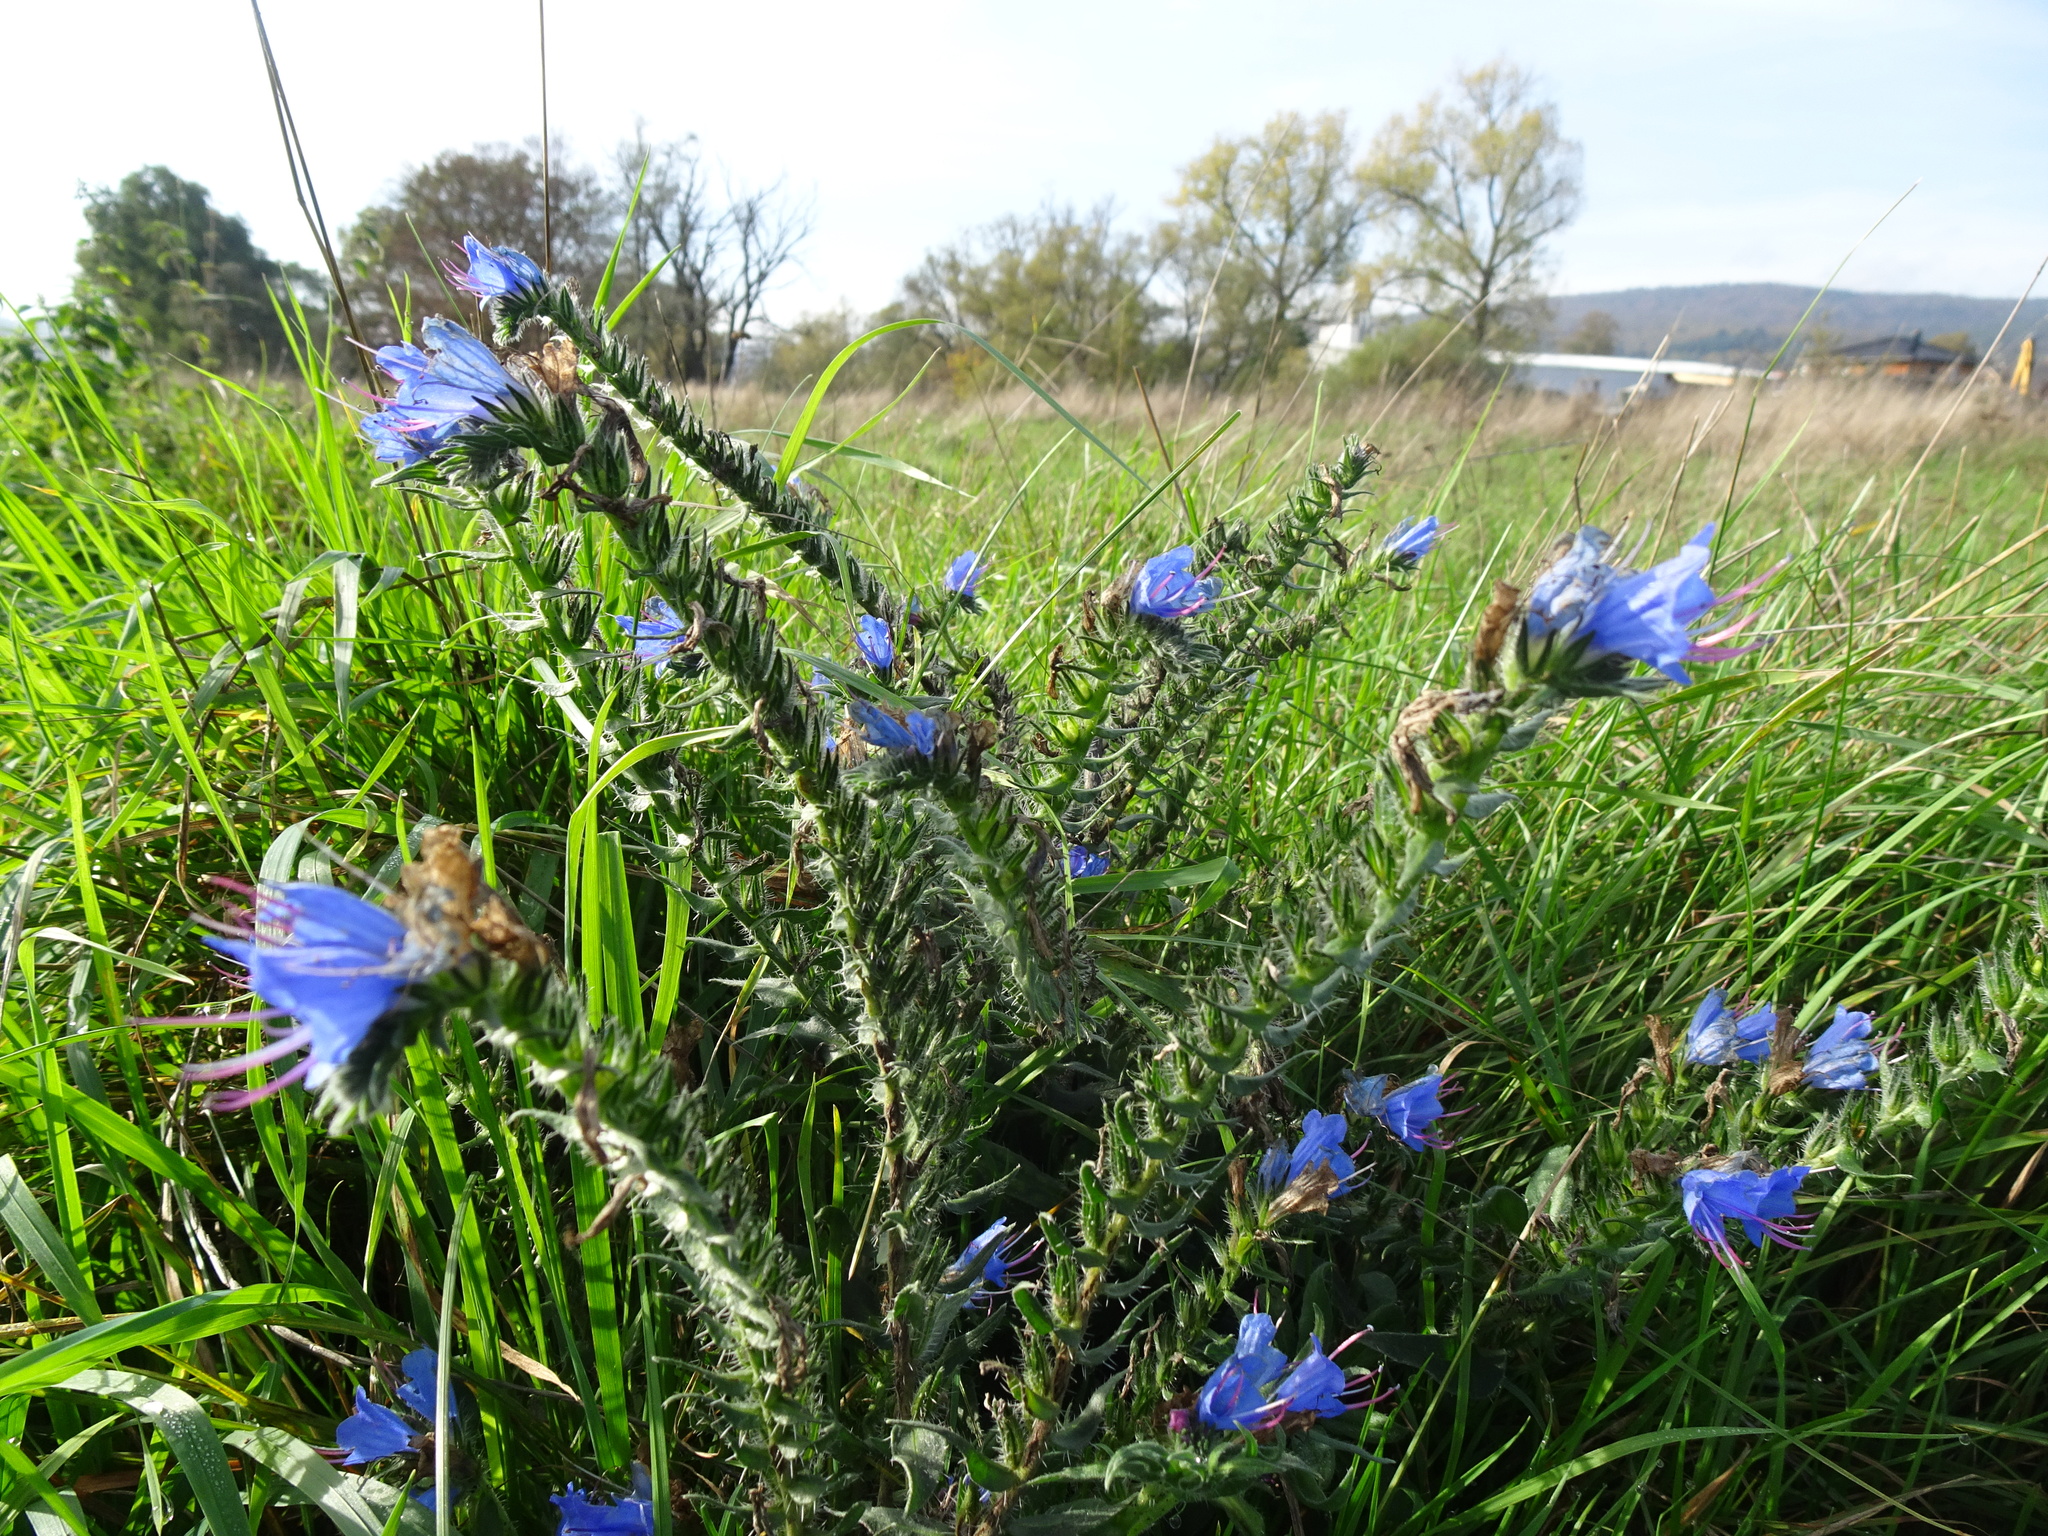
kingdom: Plantae
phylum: Tracheophyta
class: Magnoliopsida
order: Boraginales
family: Boraginaceae
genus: Echium
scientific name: Echium vulgare
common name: Common viper's bugloss
